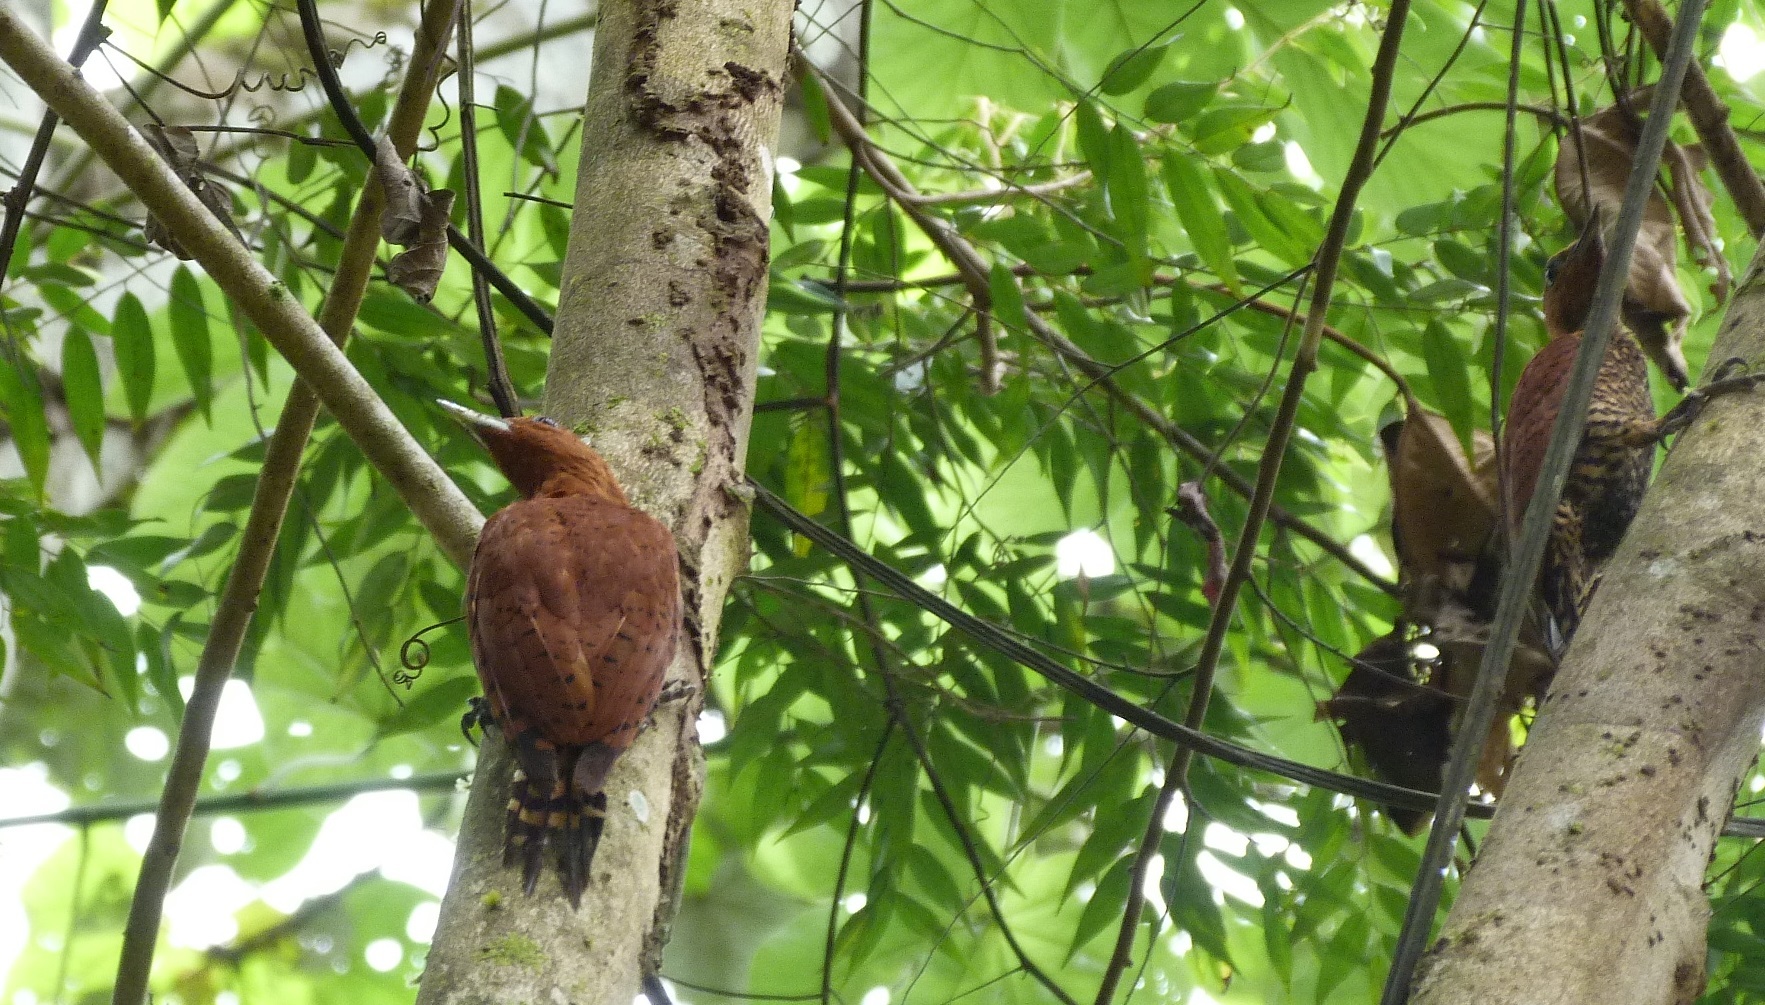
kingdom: Animalia
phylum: Chordata
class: Aves
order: Piciformes
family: Picidae
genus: Celeus
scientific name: Celeus loricatus
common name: Cinnamon woodpecker
